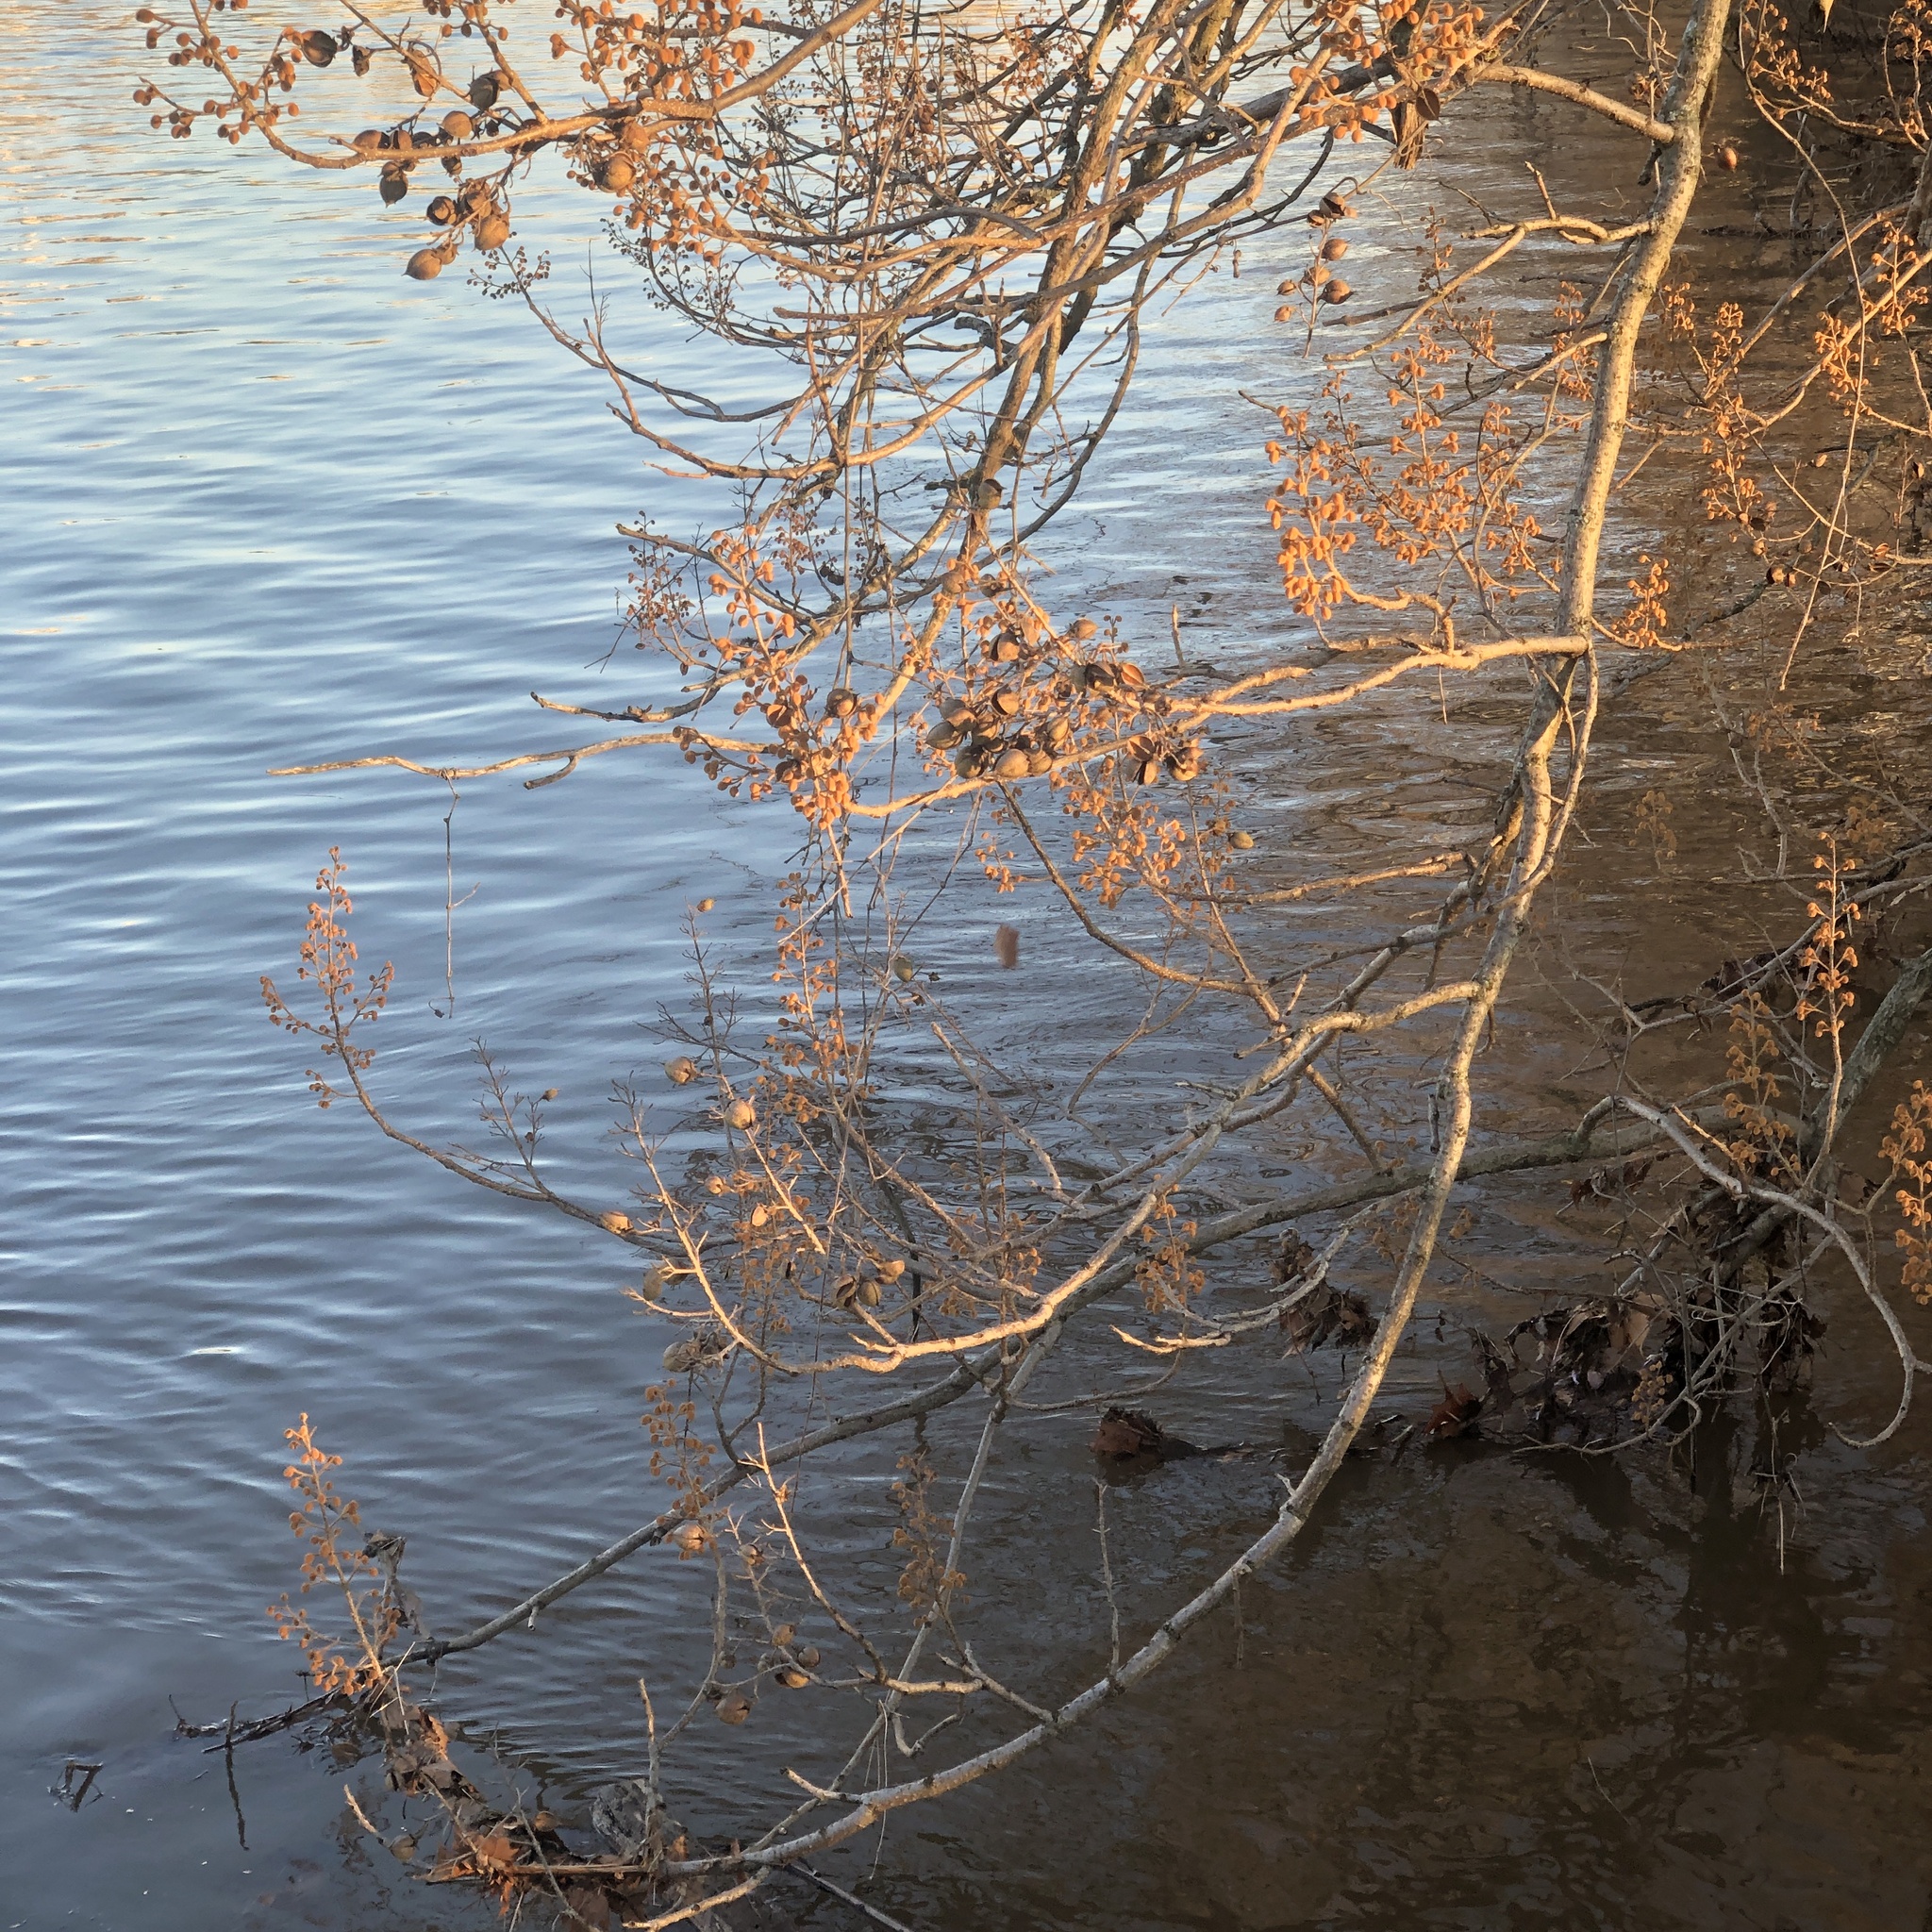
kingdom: Plantae
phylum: Tracheophyta
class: Magnoliopsida
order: Lamiales
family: Paulowniaceae
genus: Paulownia
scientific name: Paulownia tomentosa
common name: Foxglove-tree
